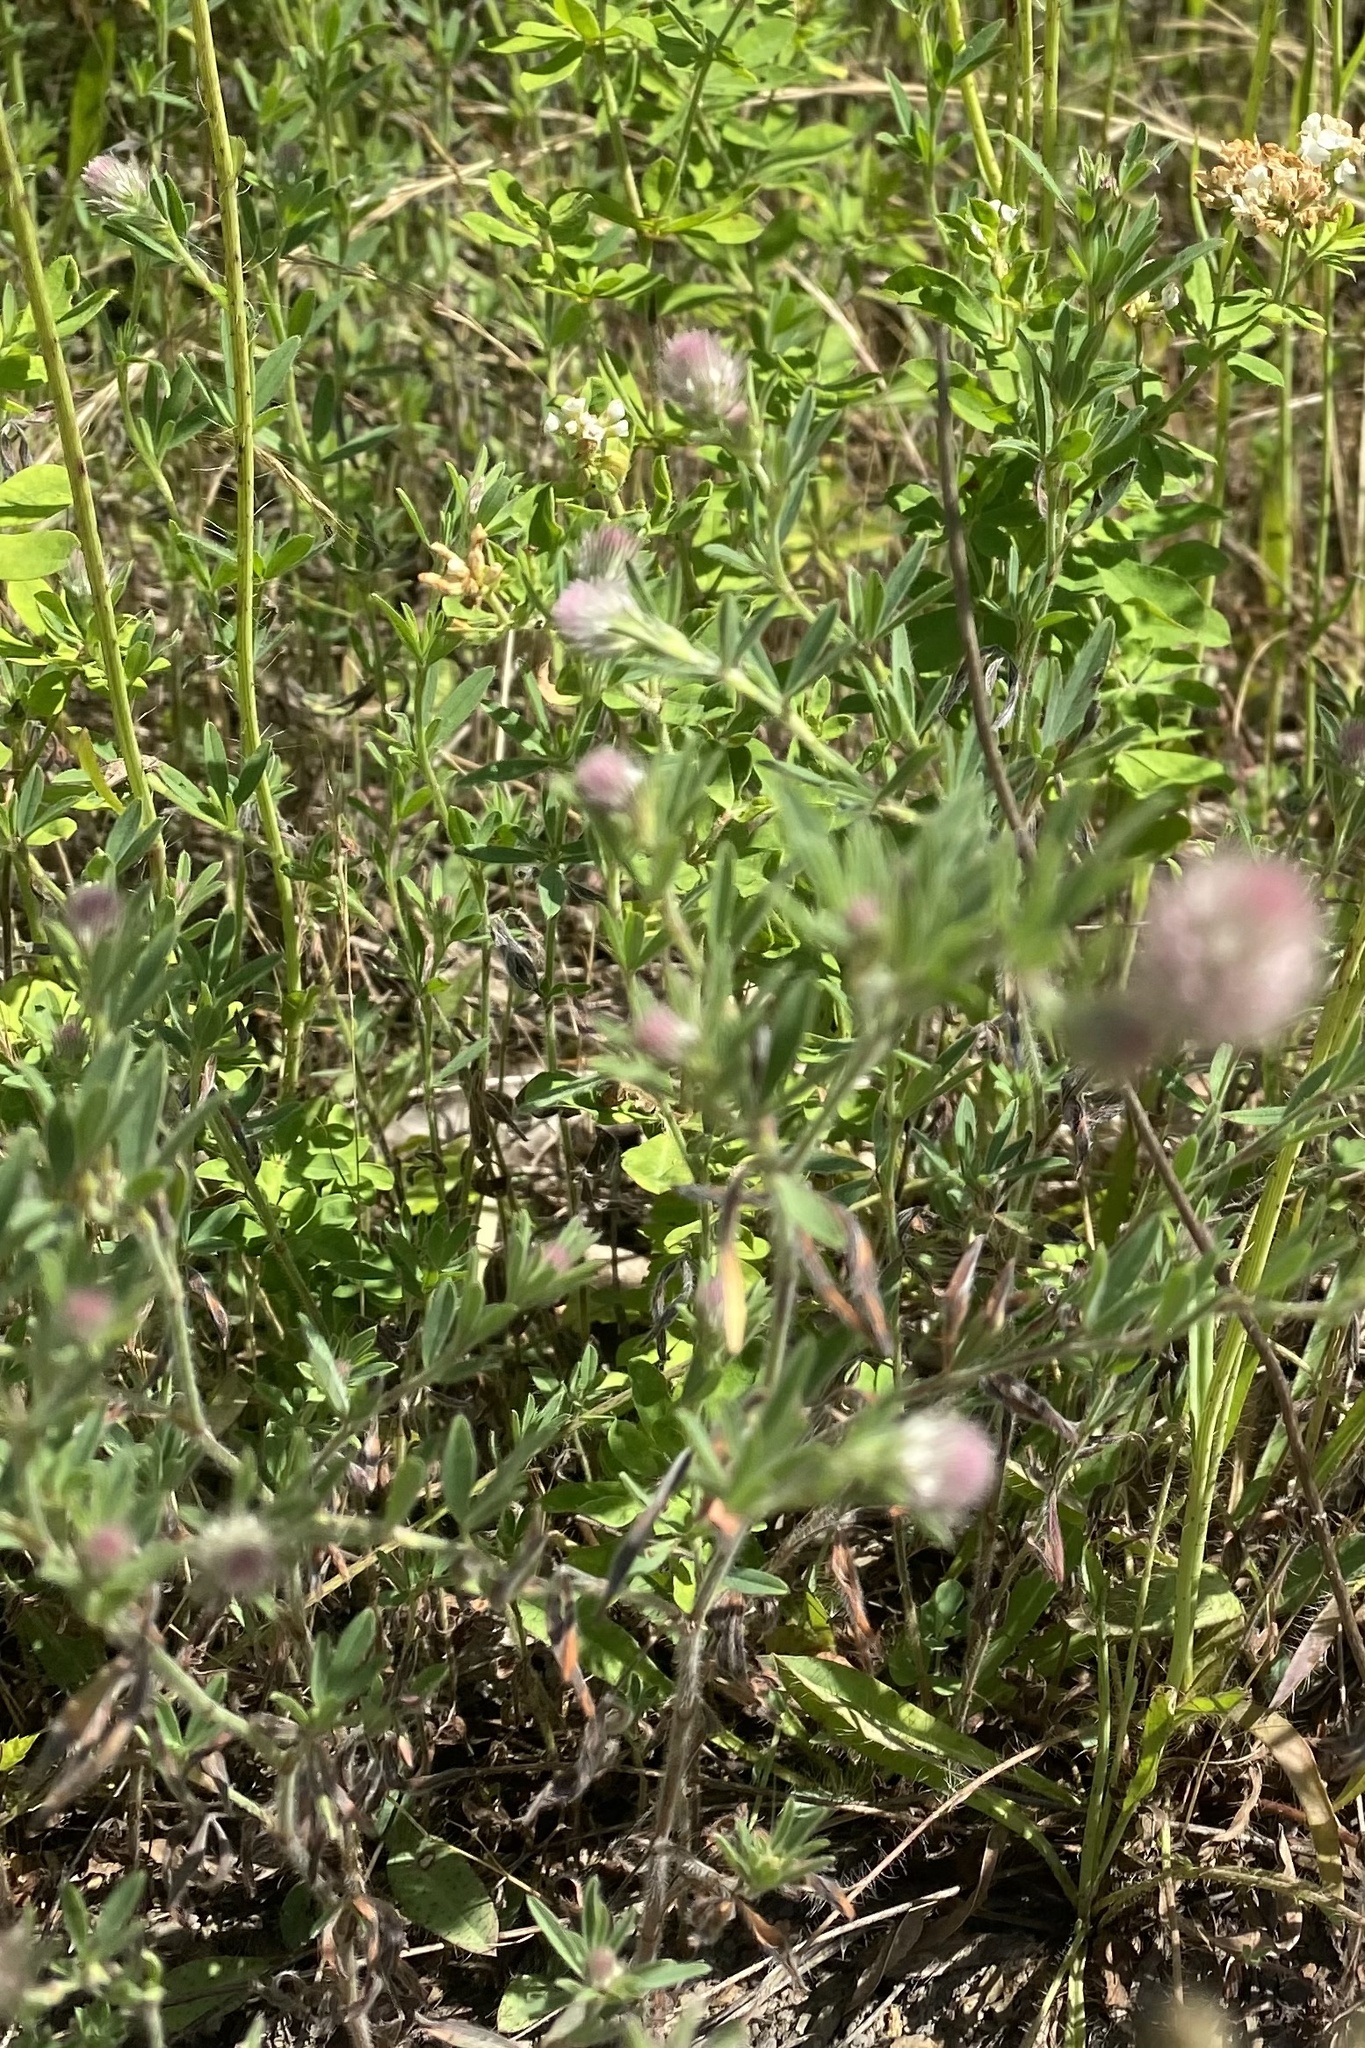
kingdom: Plantae
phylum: Tracheophyta
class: Magnoliopsida
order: Fabales
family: Fabaceae
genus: Trifolium
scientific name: Trifolium arvense
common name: Hare's-foot clover
